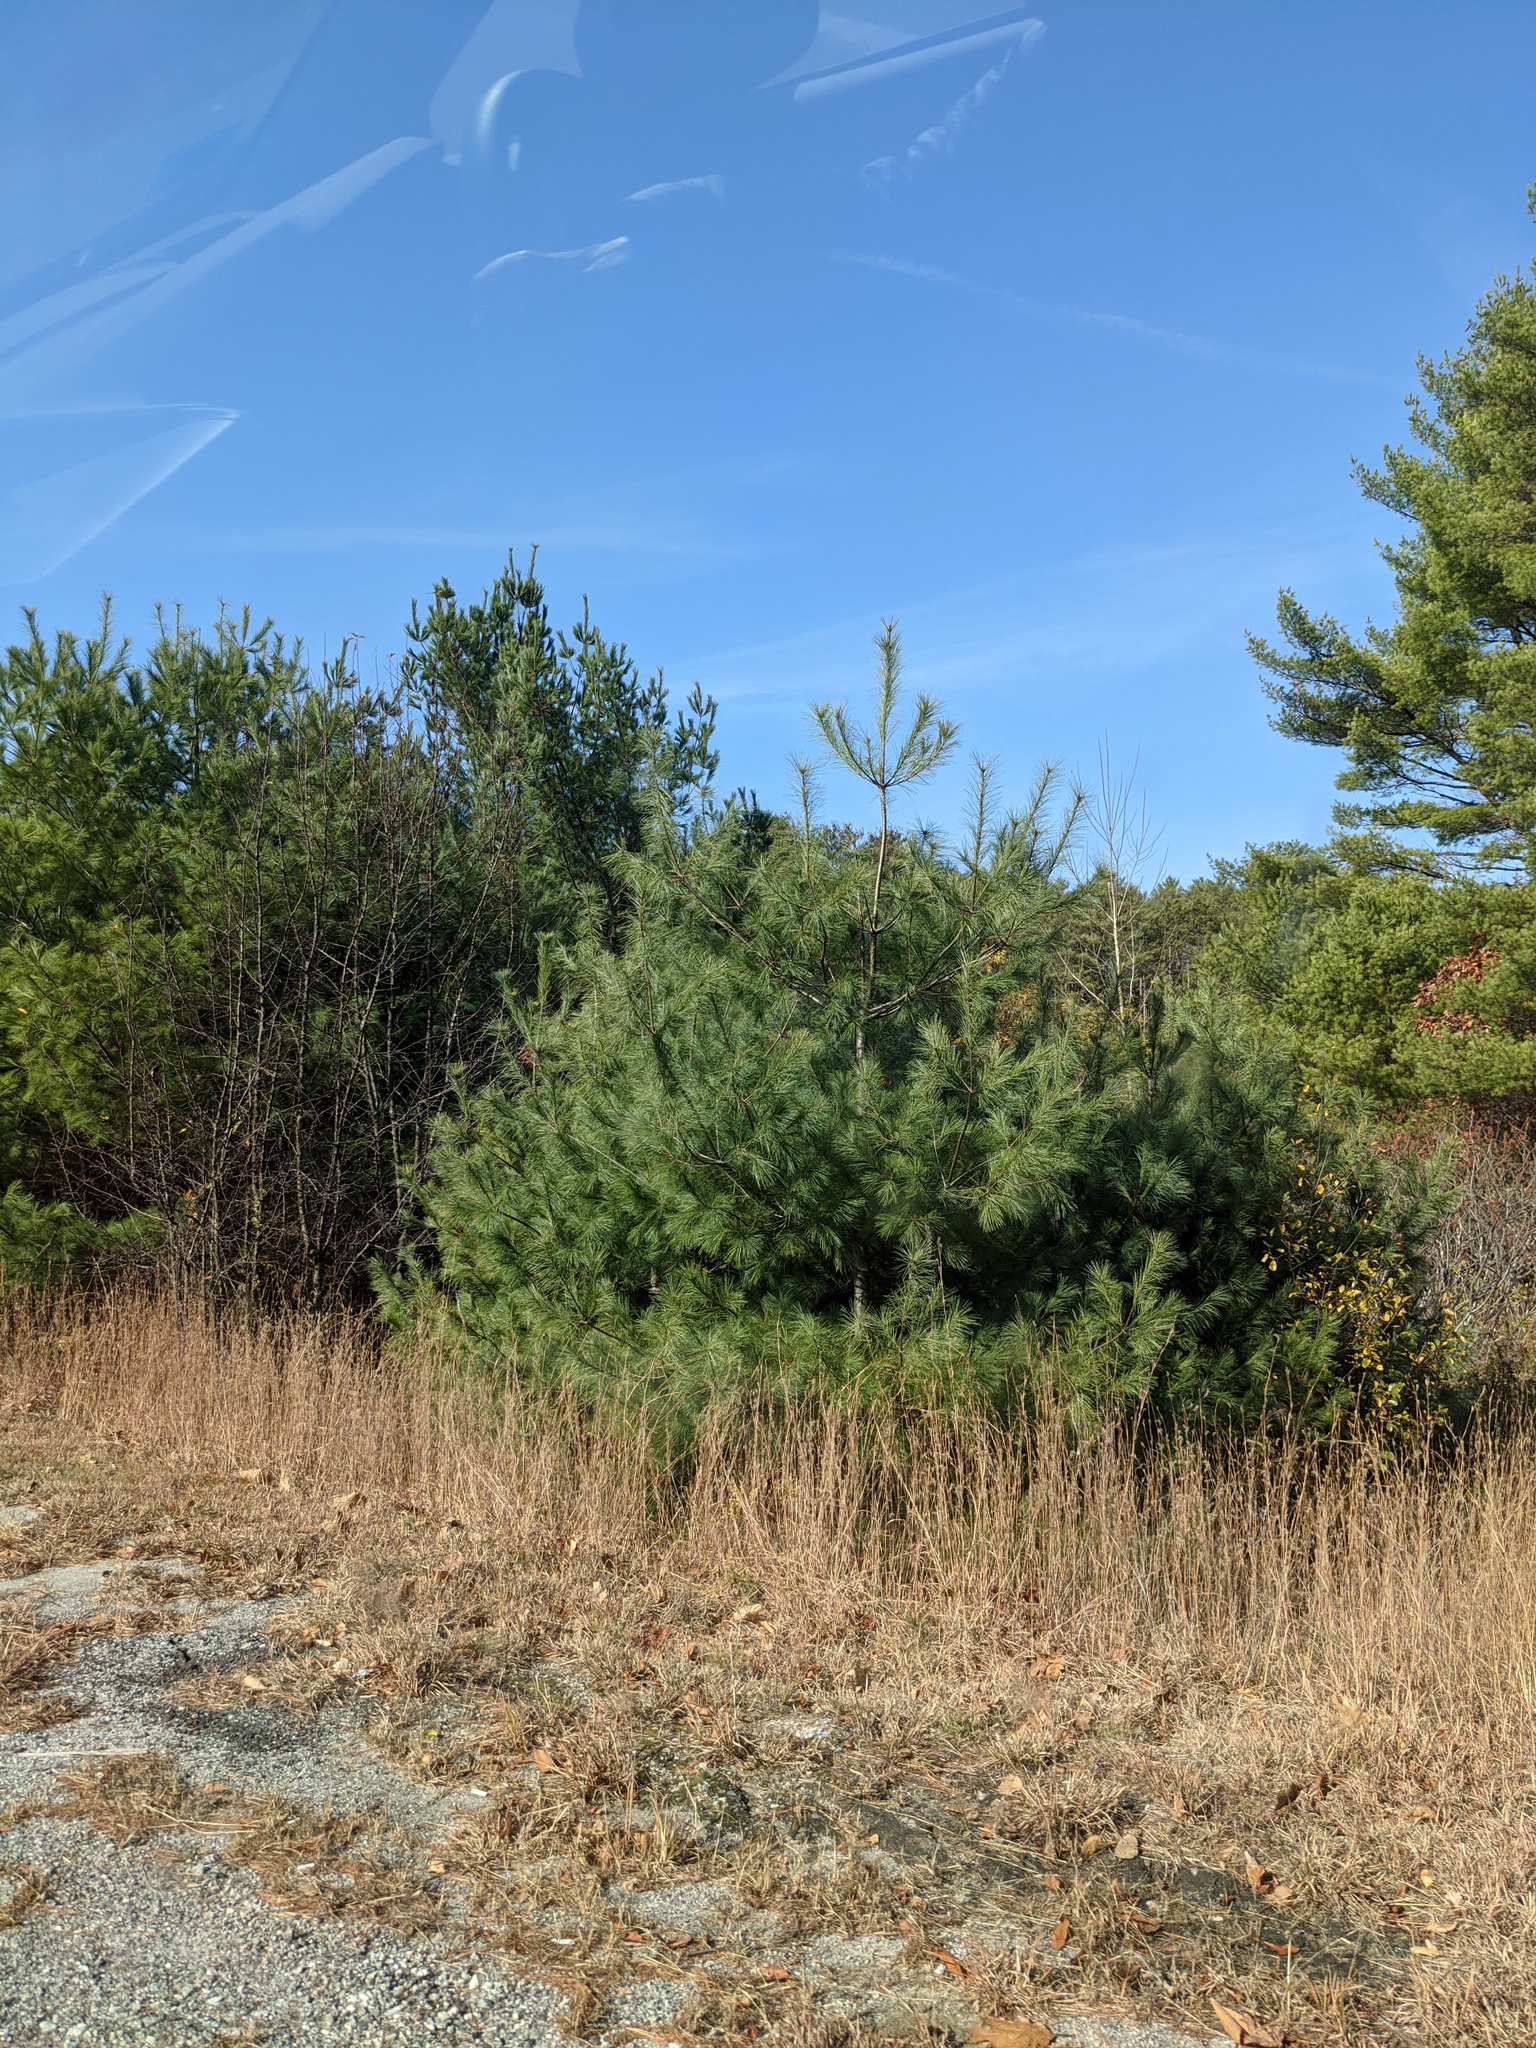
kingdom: Plantae
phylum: Tracheophyta
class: Pinopsida
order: Pinales
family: Pinaceae
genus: Pinus
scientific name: Pinus strobus
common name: Weymouth pine
